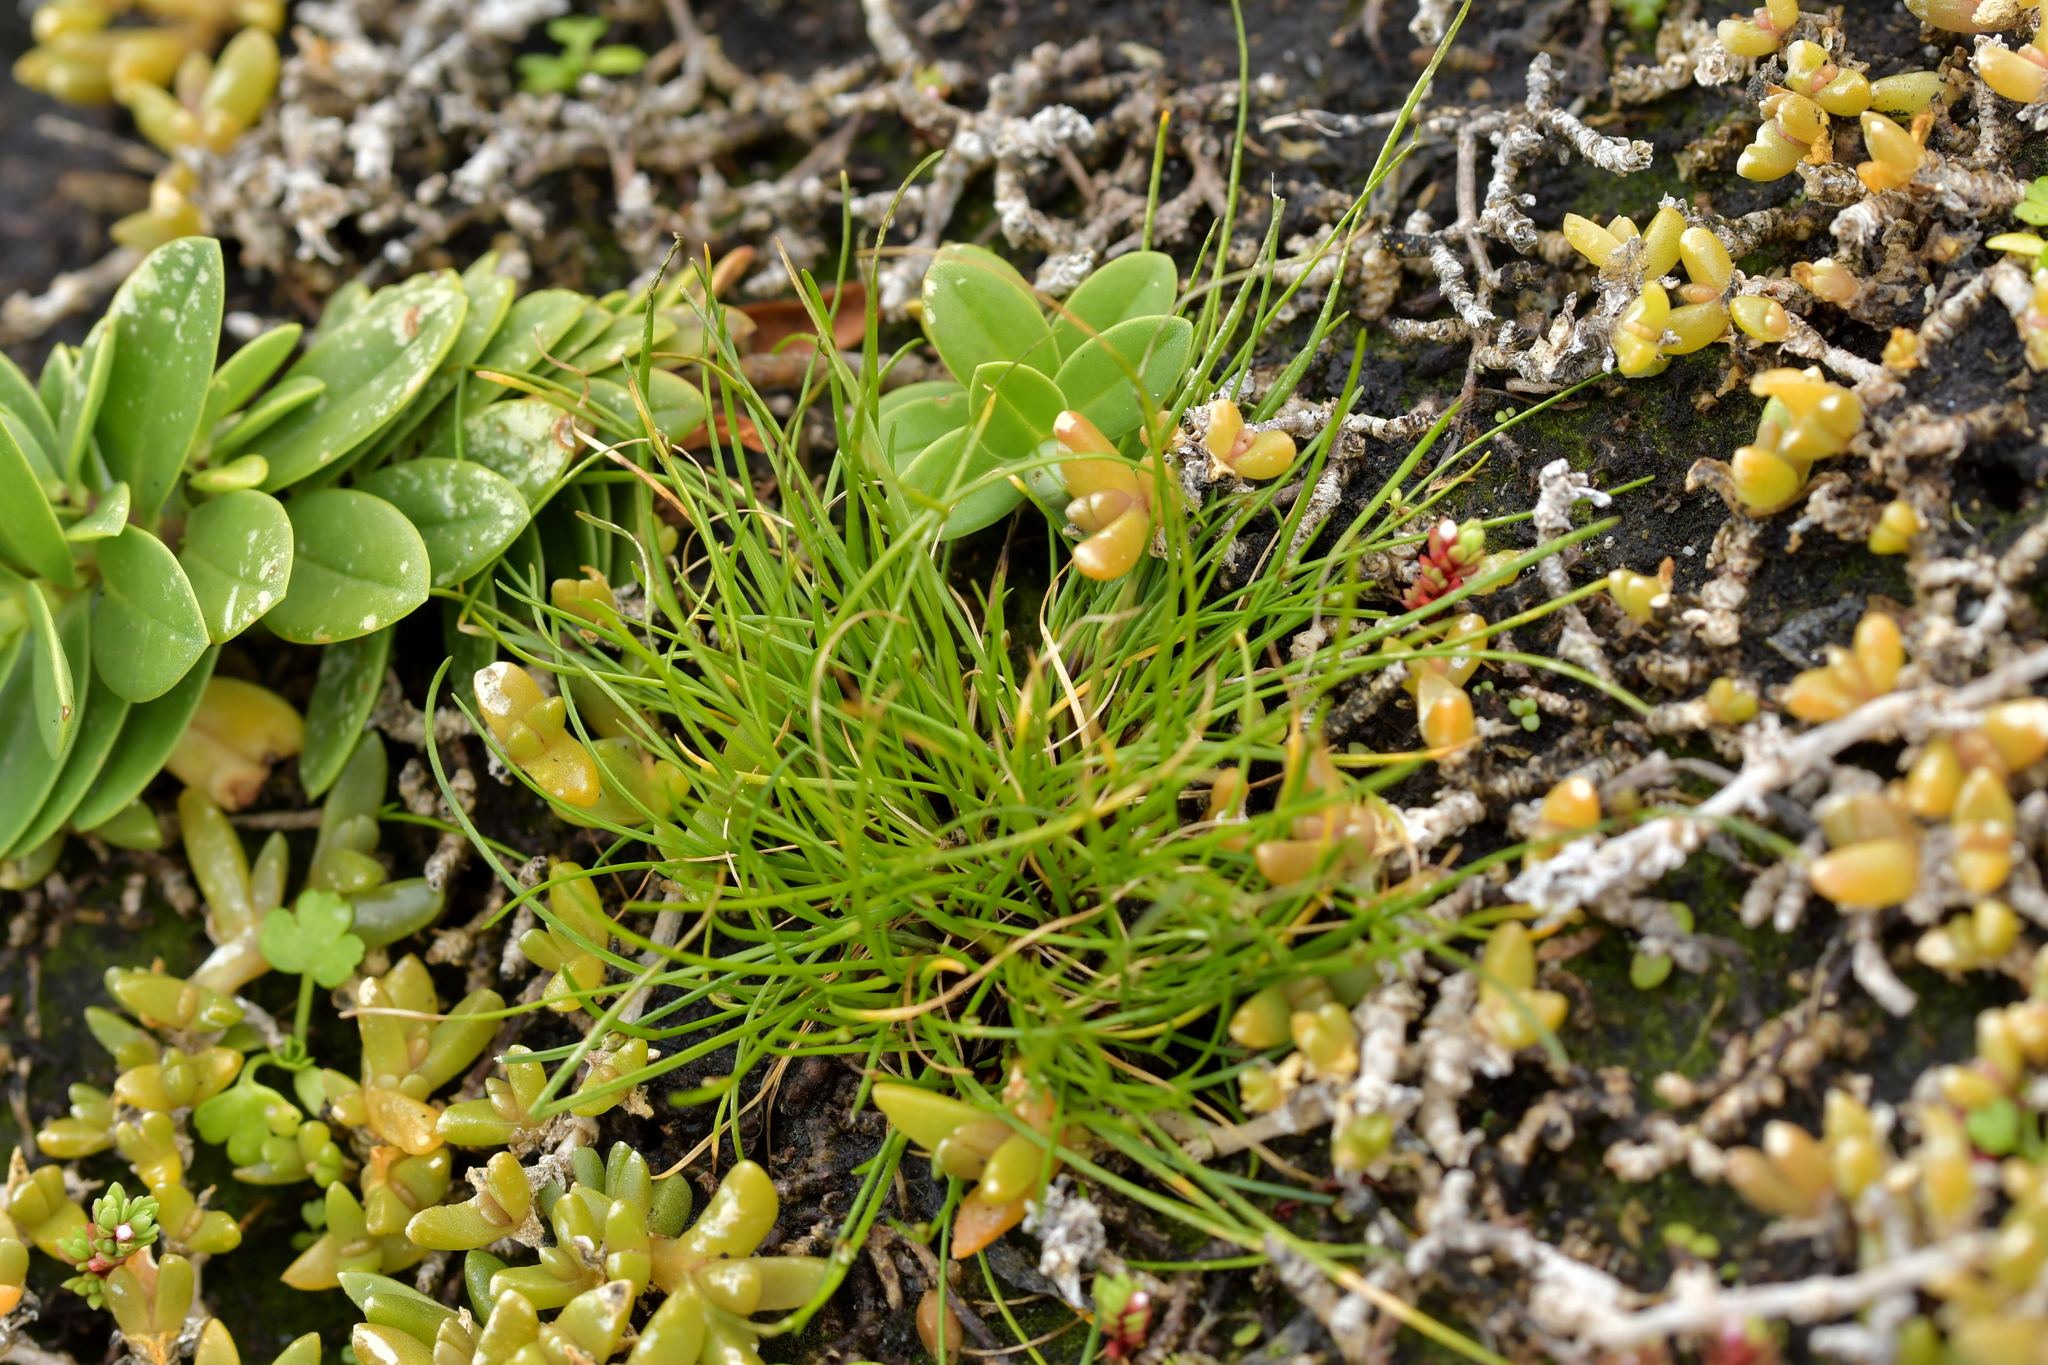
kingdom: Plantae
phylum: Tracheophyta
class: Liliopsida
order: Poales
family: Cyperaceae
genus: Isolepis
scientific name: Isolepis cernua
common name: Slender club-rush
